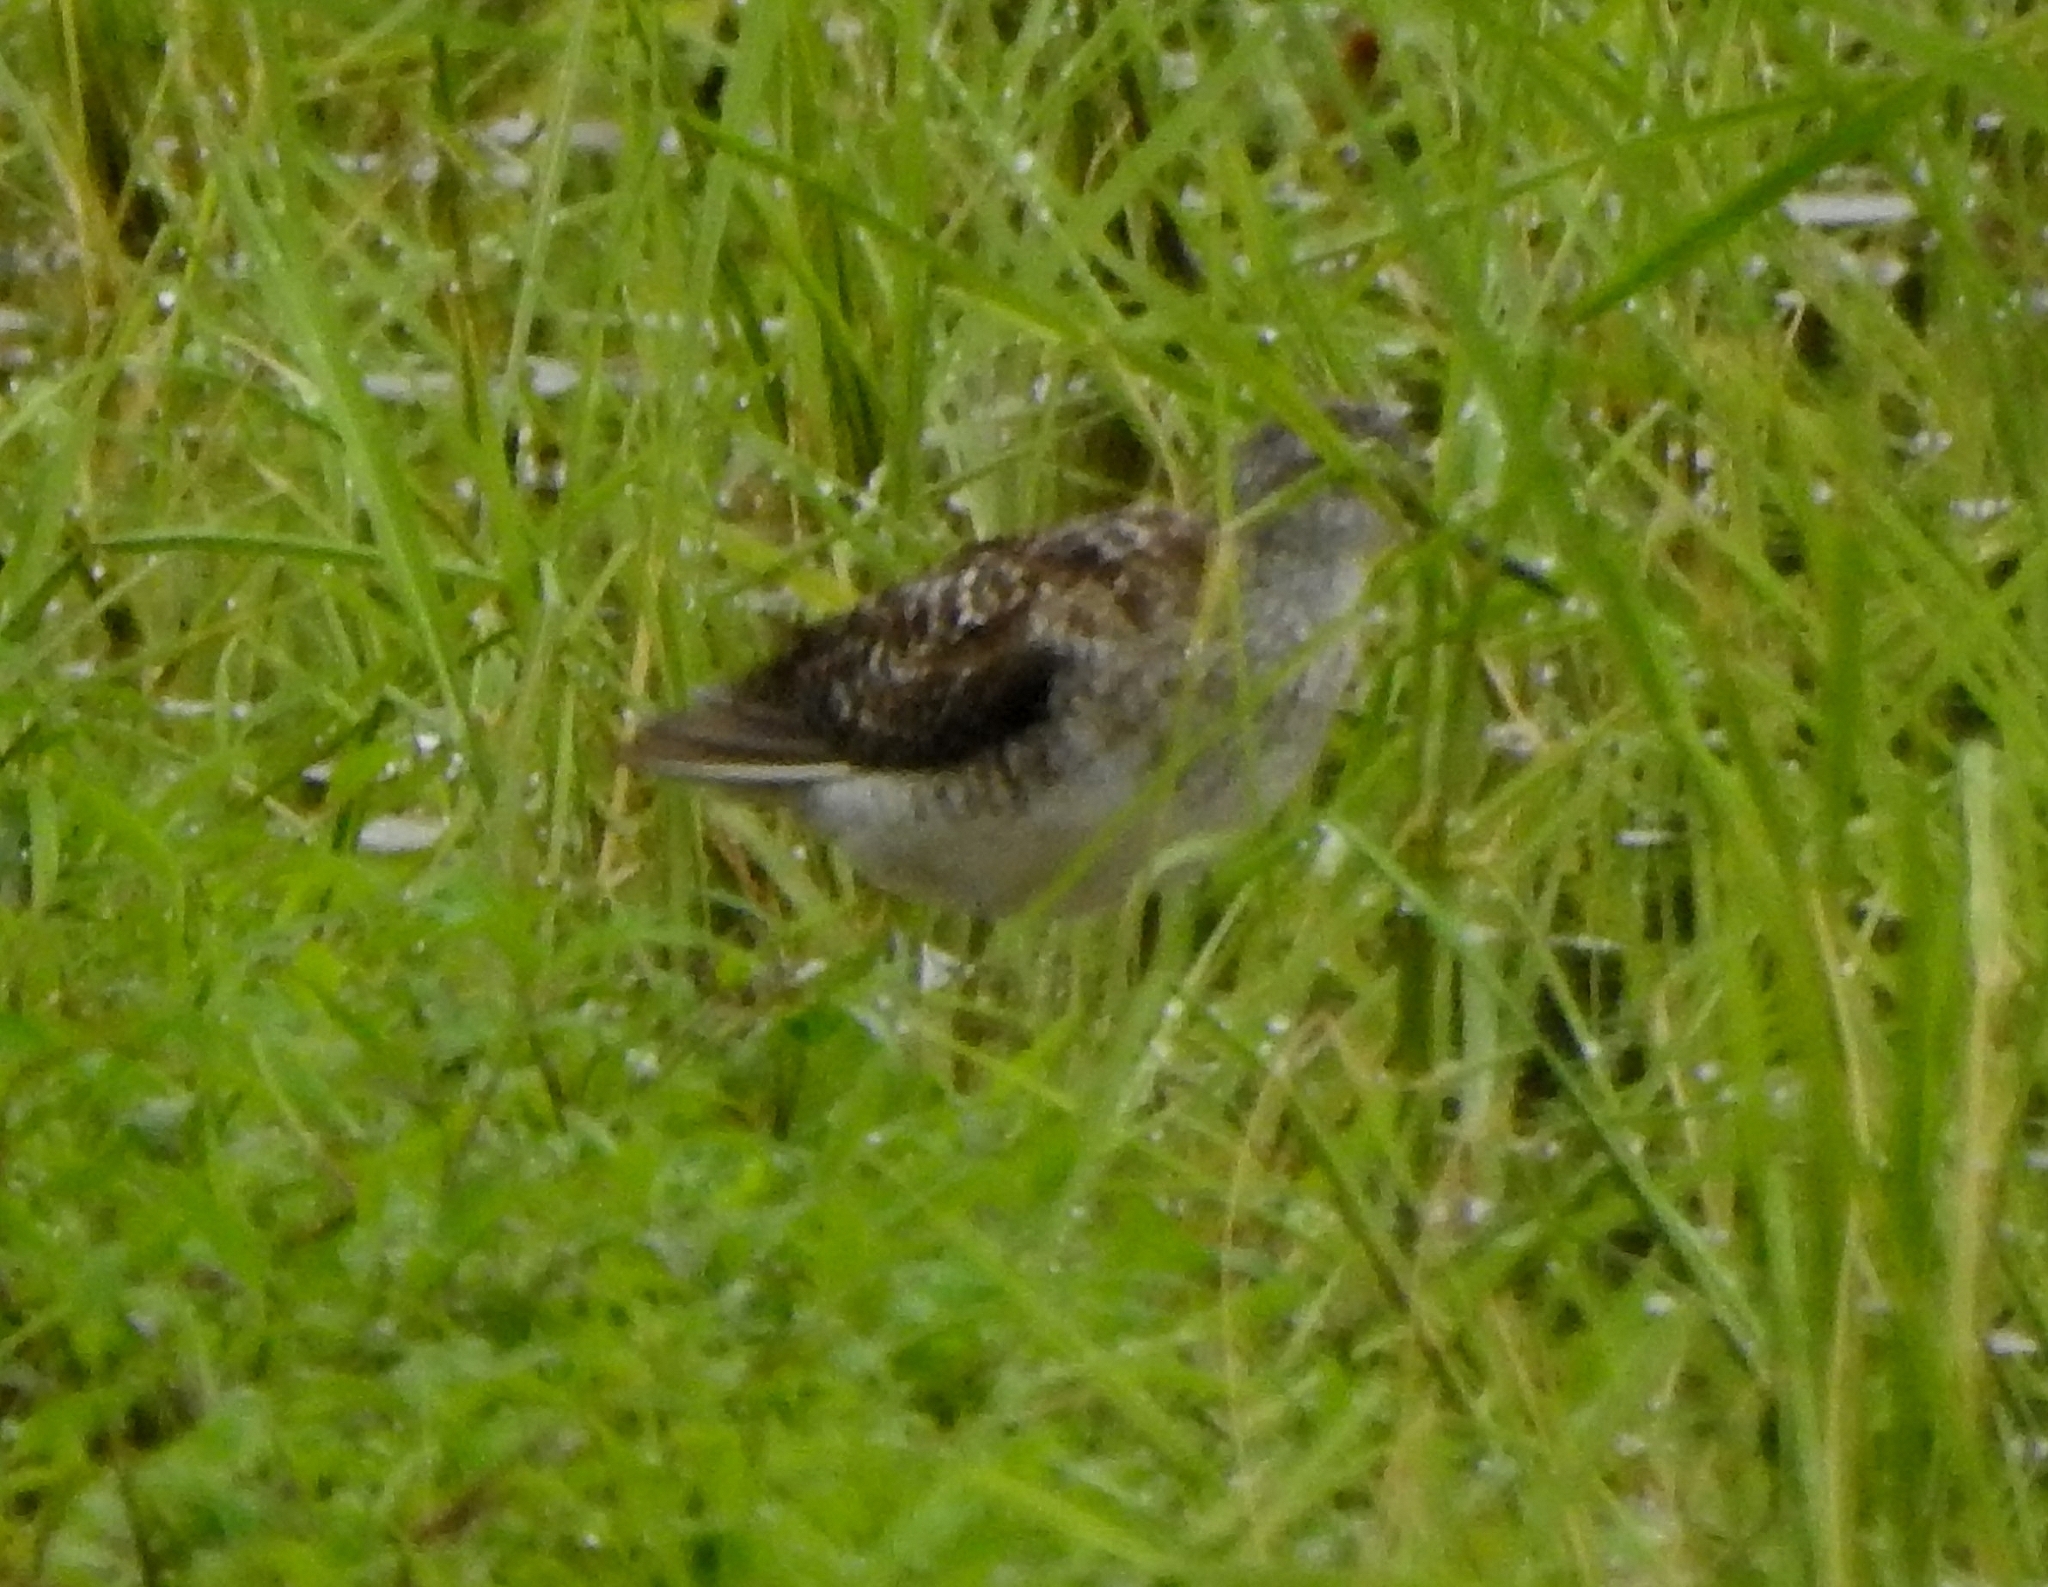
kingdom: Animalia
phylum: Chordata
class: Aves
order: Charadriiformes
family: Scolopacidae
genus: Tringa
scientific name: Tringa glareola
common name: Wood sandpiper
